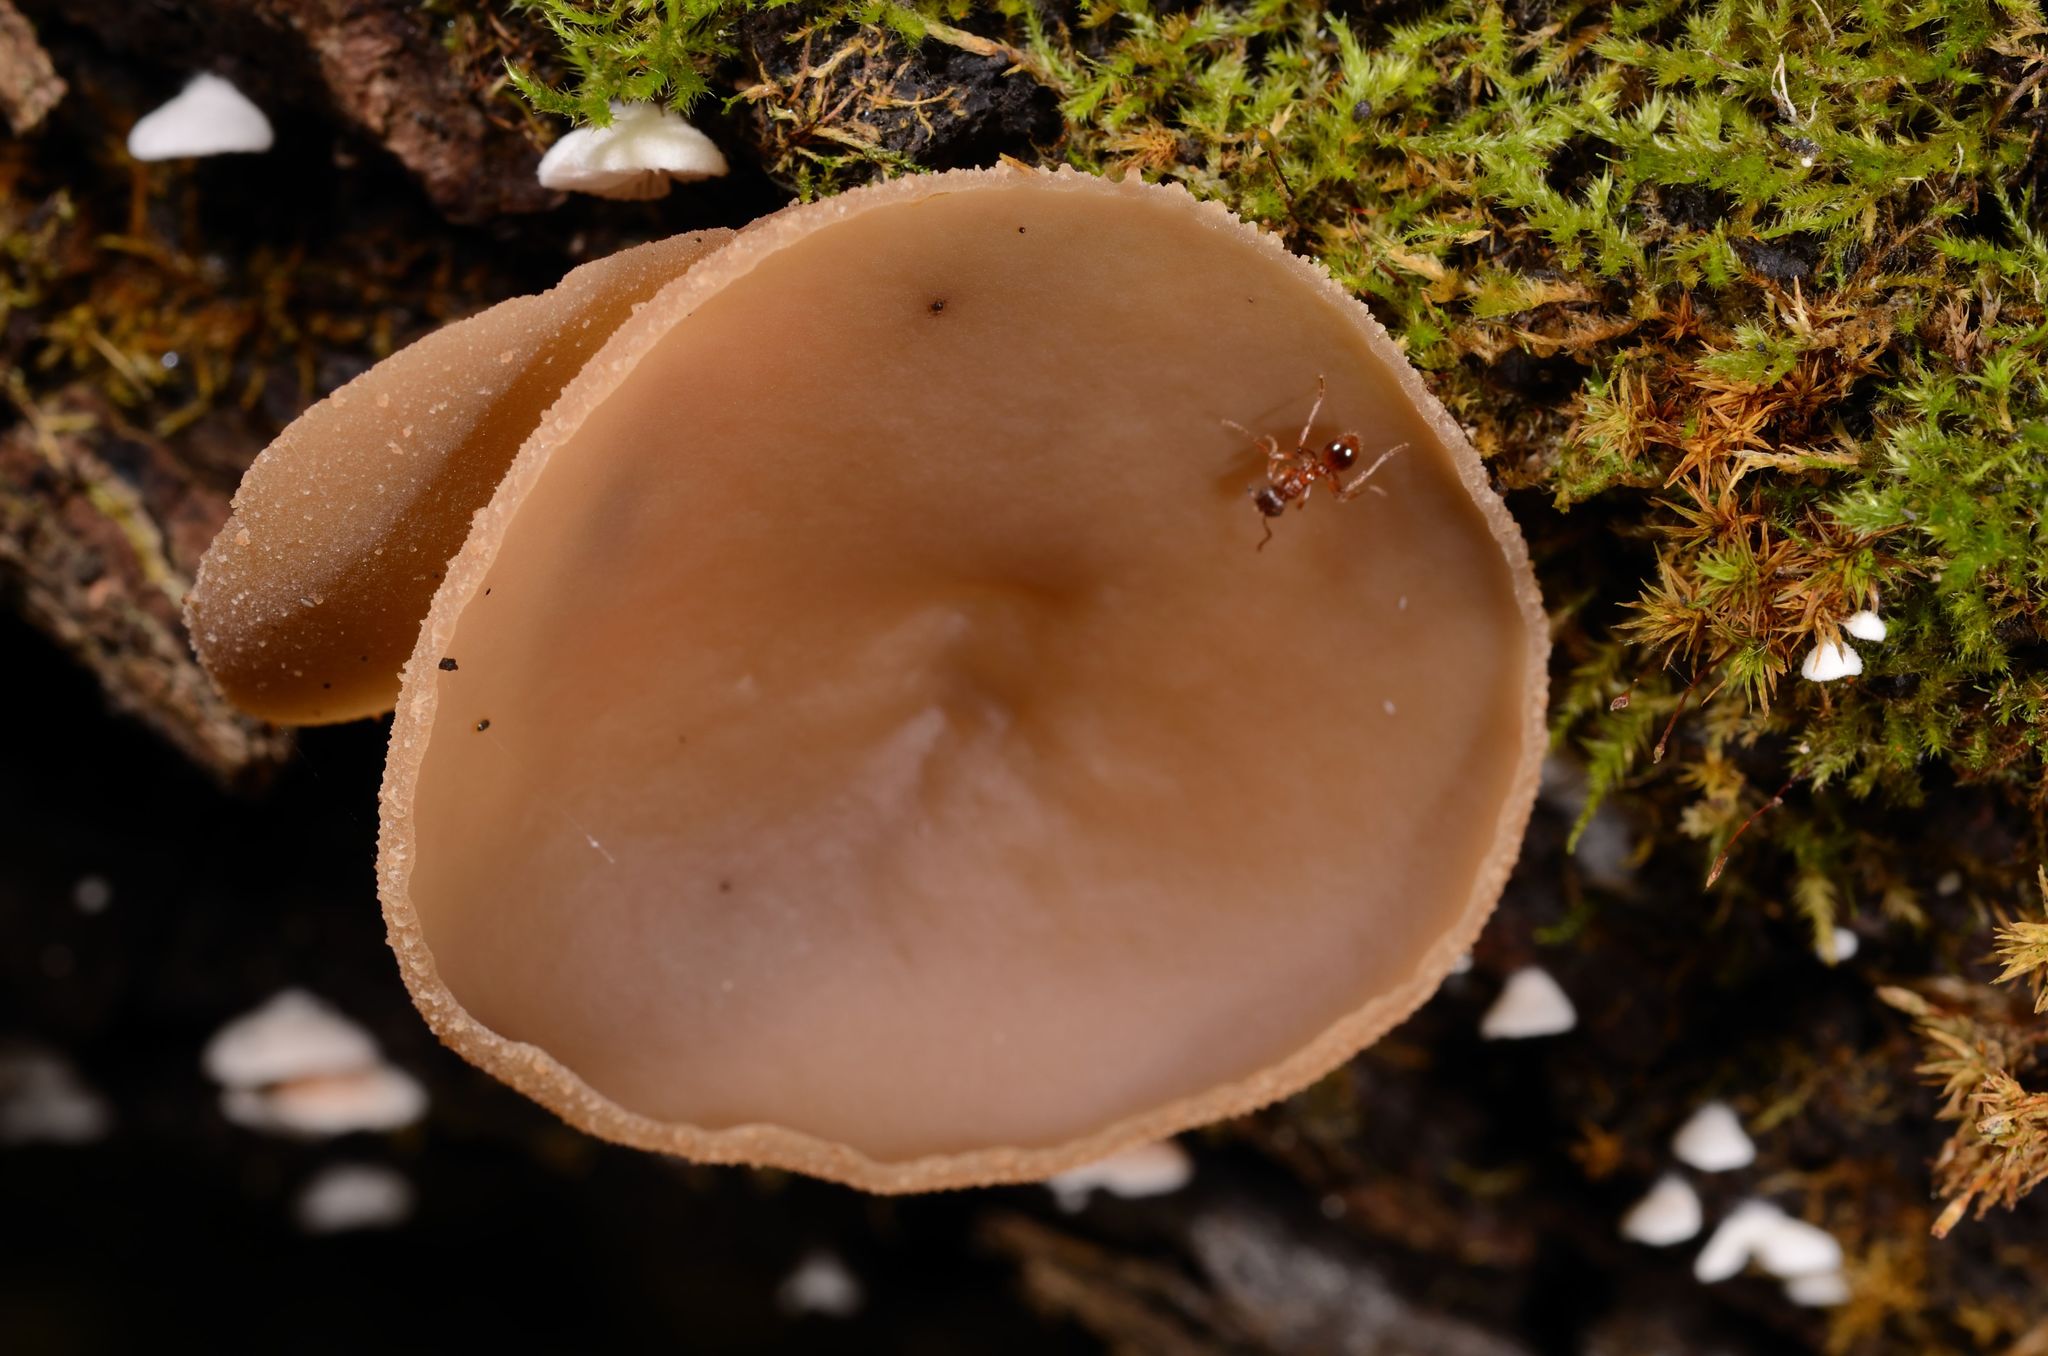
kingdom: Fungi
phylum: Ascomycota
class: Pezizomycetes
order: Pezizales
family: Pezizaceae
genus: Peziza
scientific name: Peziza varia
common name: Layered cup
